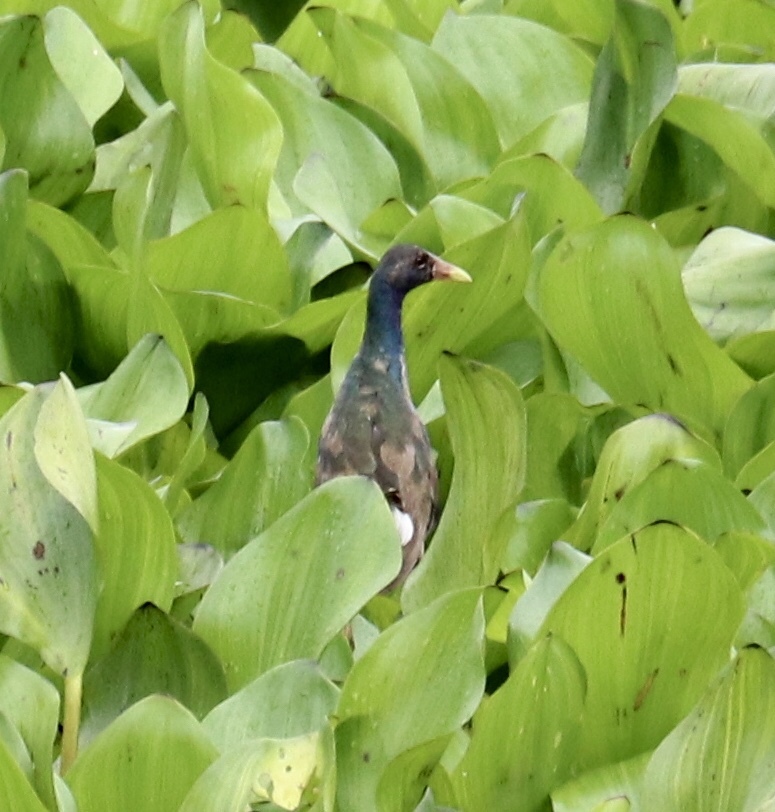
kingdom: Animalia
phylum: Chordata
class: Aves
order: Gruiformes
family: Rallidae
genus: Porphyrio
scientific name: Porphyrio martinica
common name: Purple gallinule
